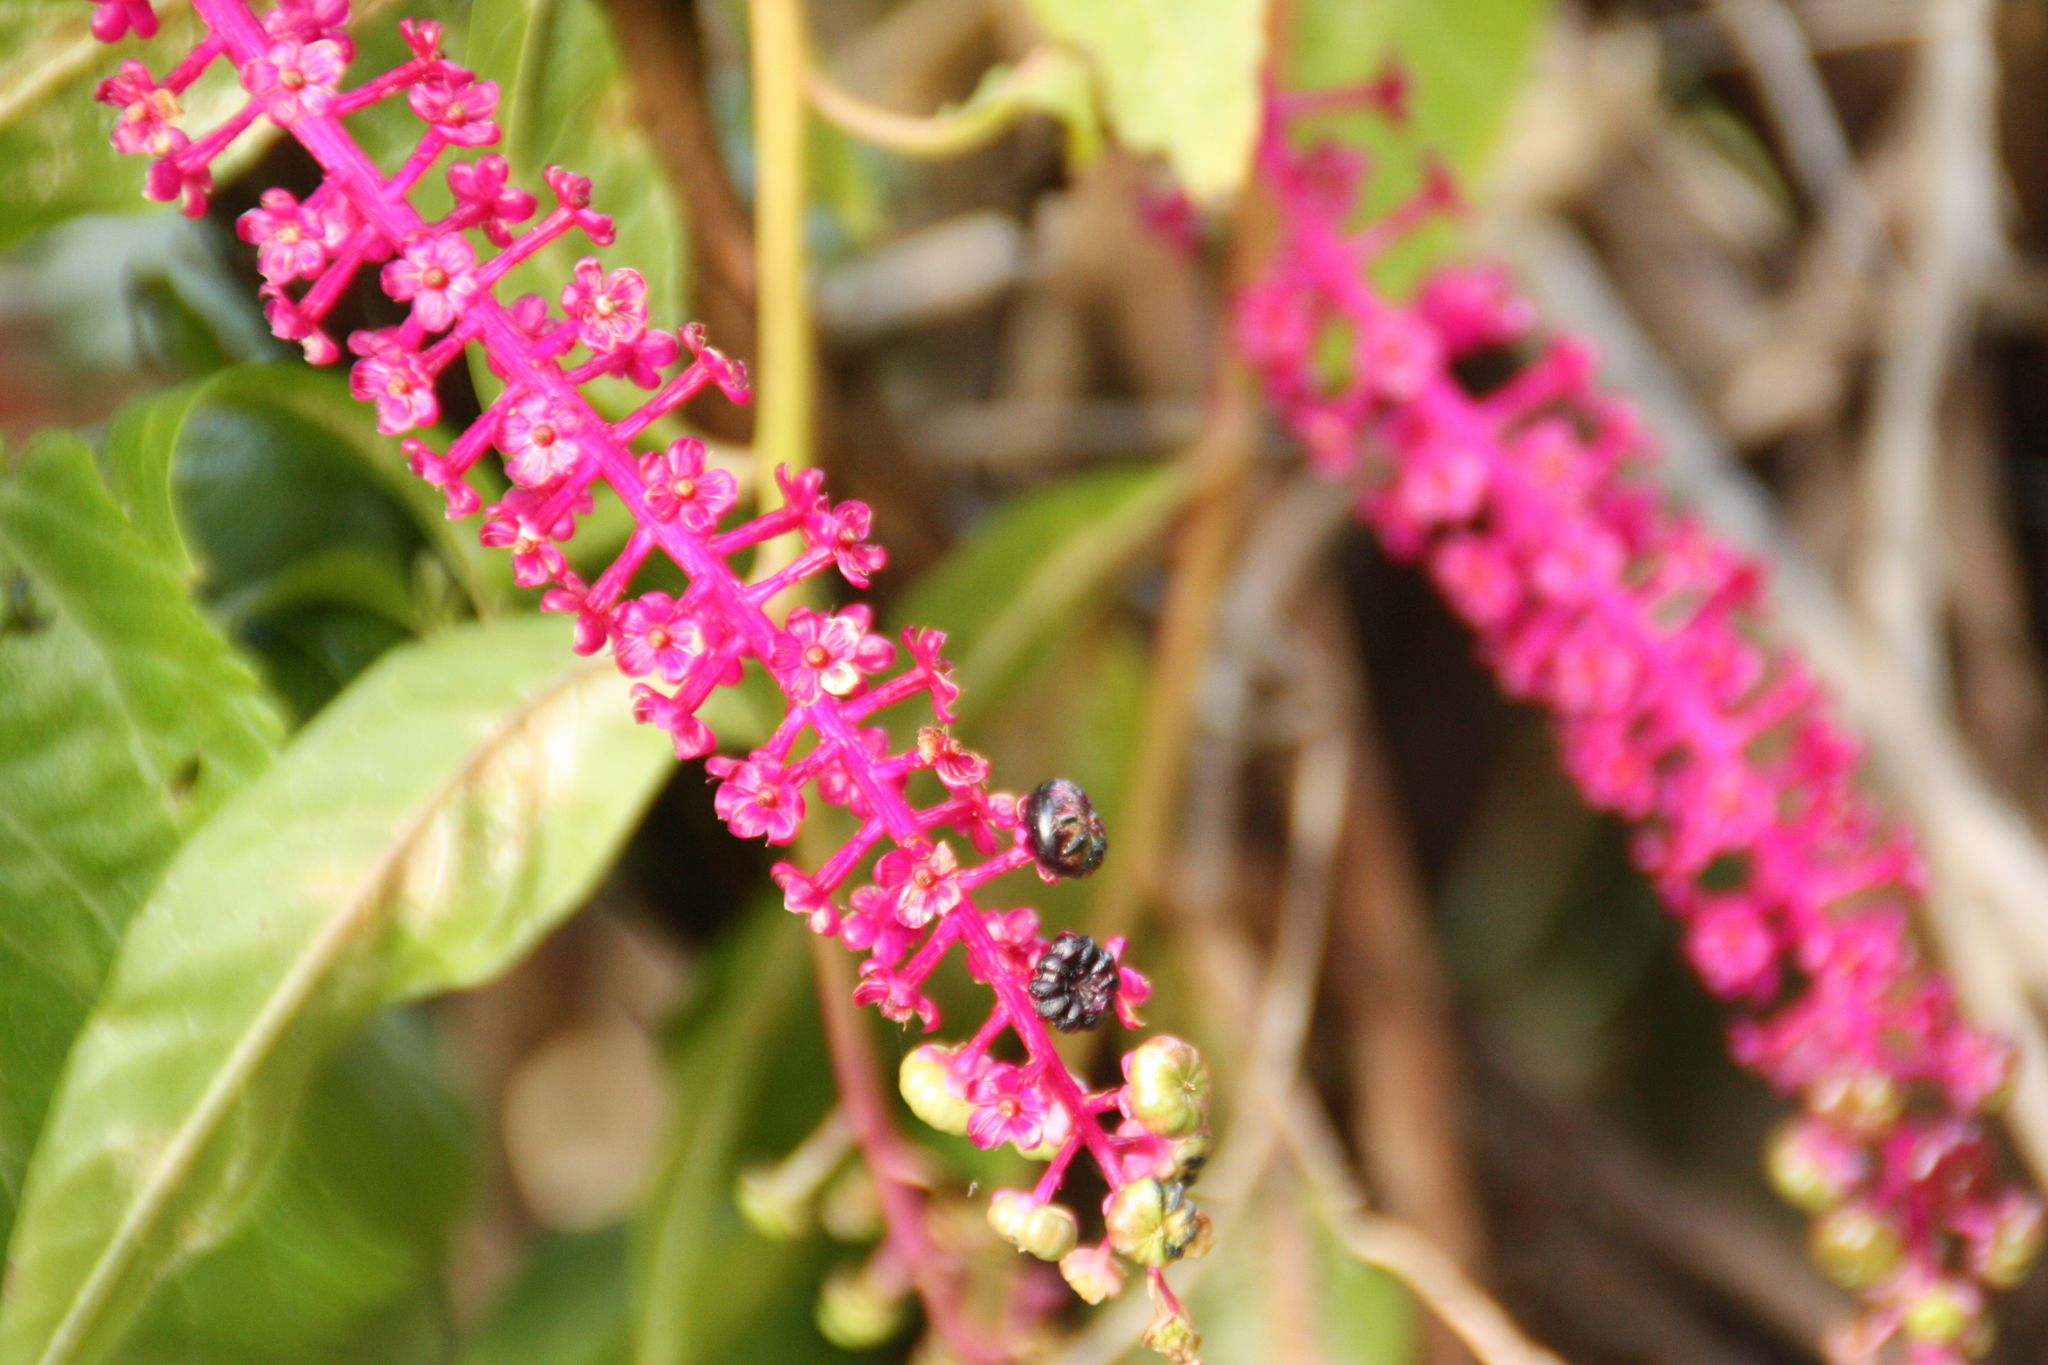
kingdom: Plantae
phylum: Tracheophyta
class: Magnoliopsida
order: Caryophyllales
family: Phytolaccaceae
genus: Phytolacca
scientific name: Phytolacca americana
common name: American pokeweed
